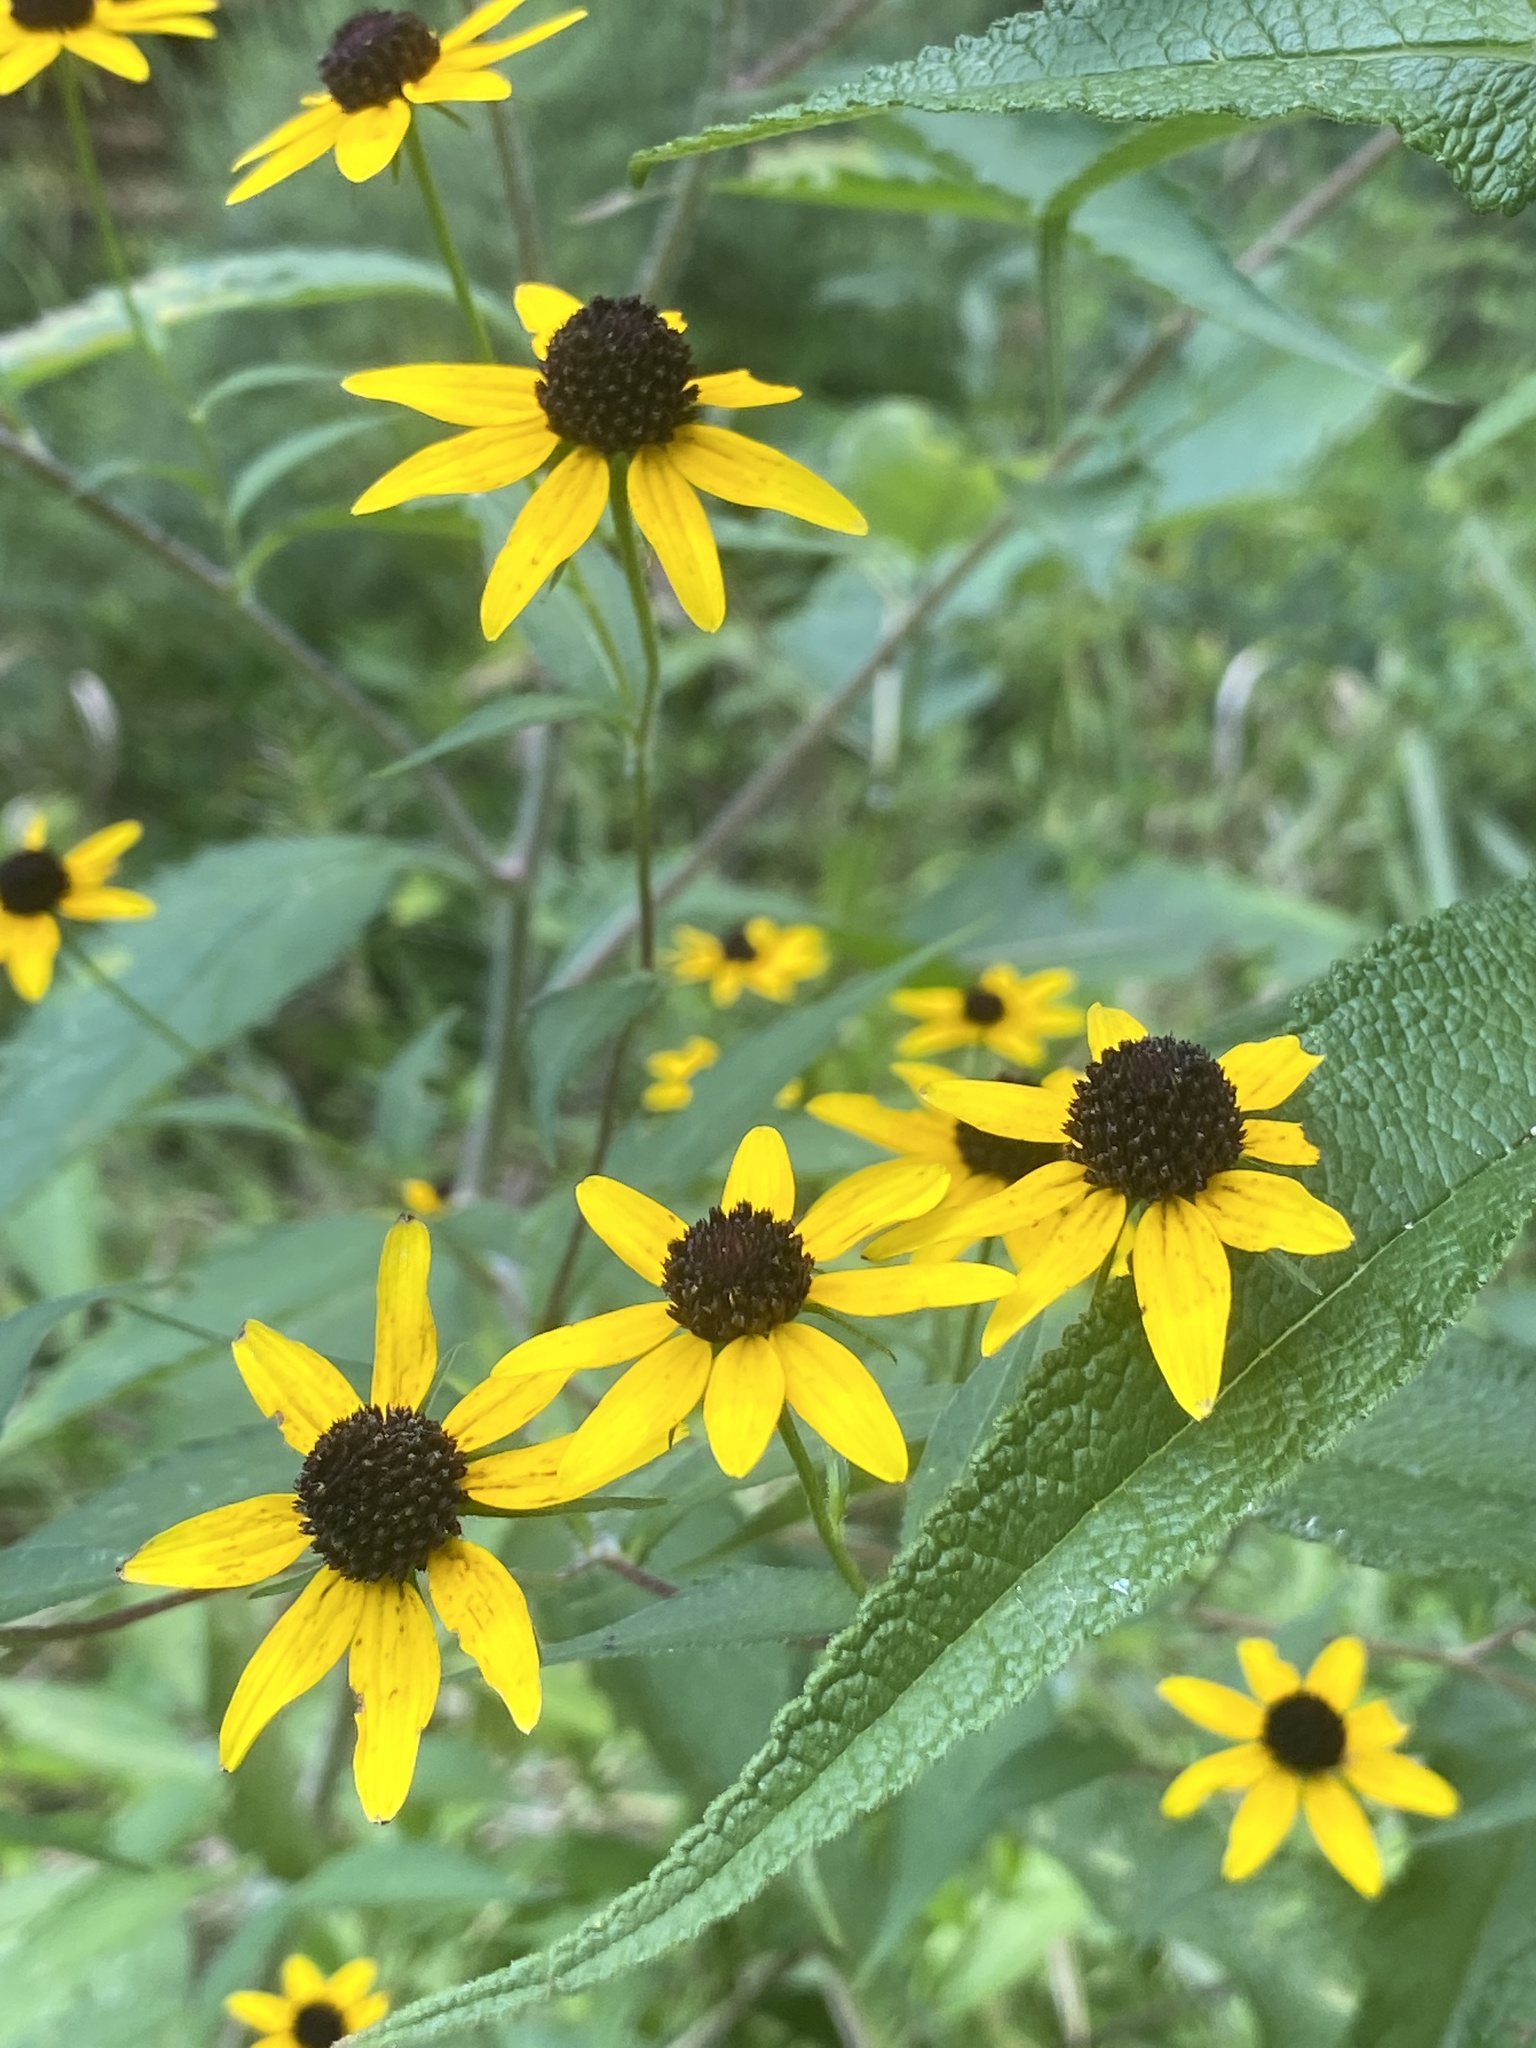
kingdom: Plantae
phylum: Tracheophyta
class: Magnoliopsida
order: Asterales
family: Asteraceae
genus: Rudbeckia
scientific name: Rudbeckia triloba
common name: Thin-leaved coneflower
